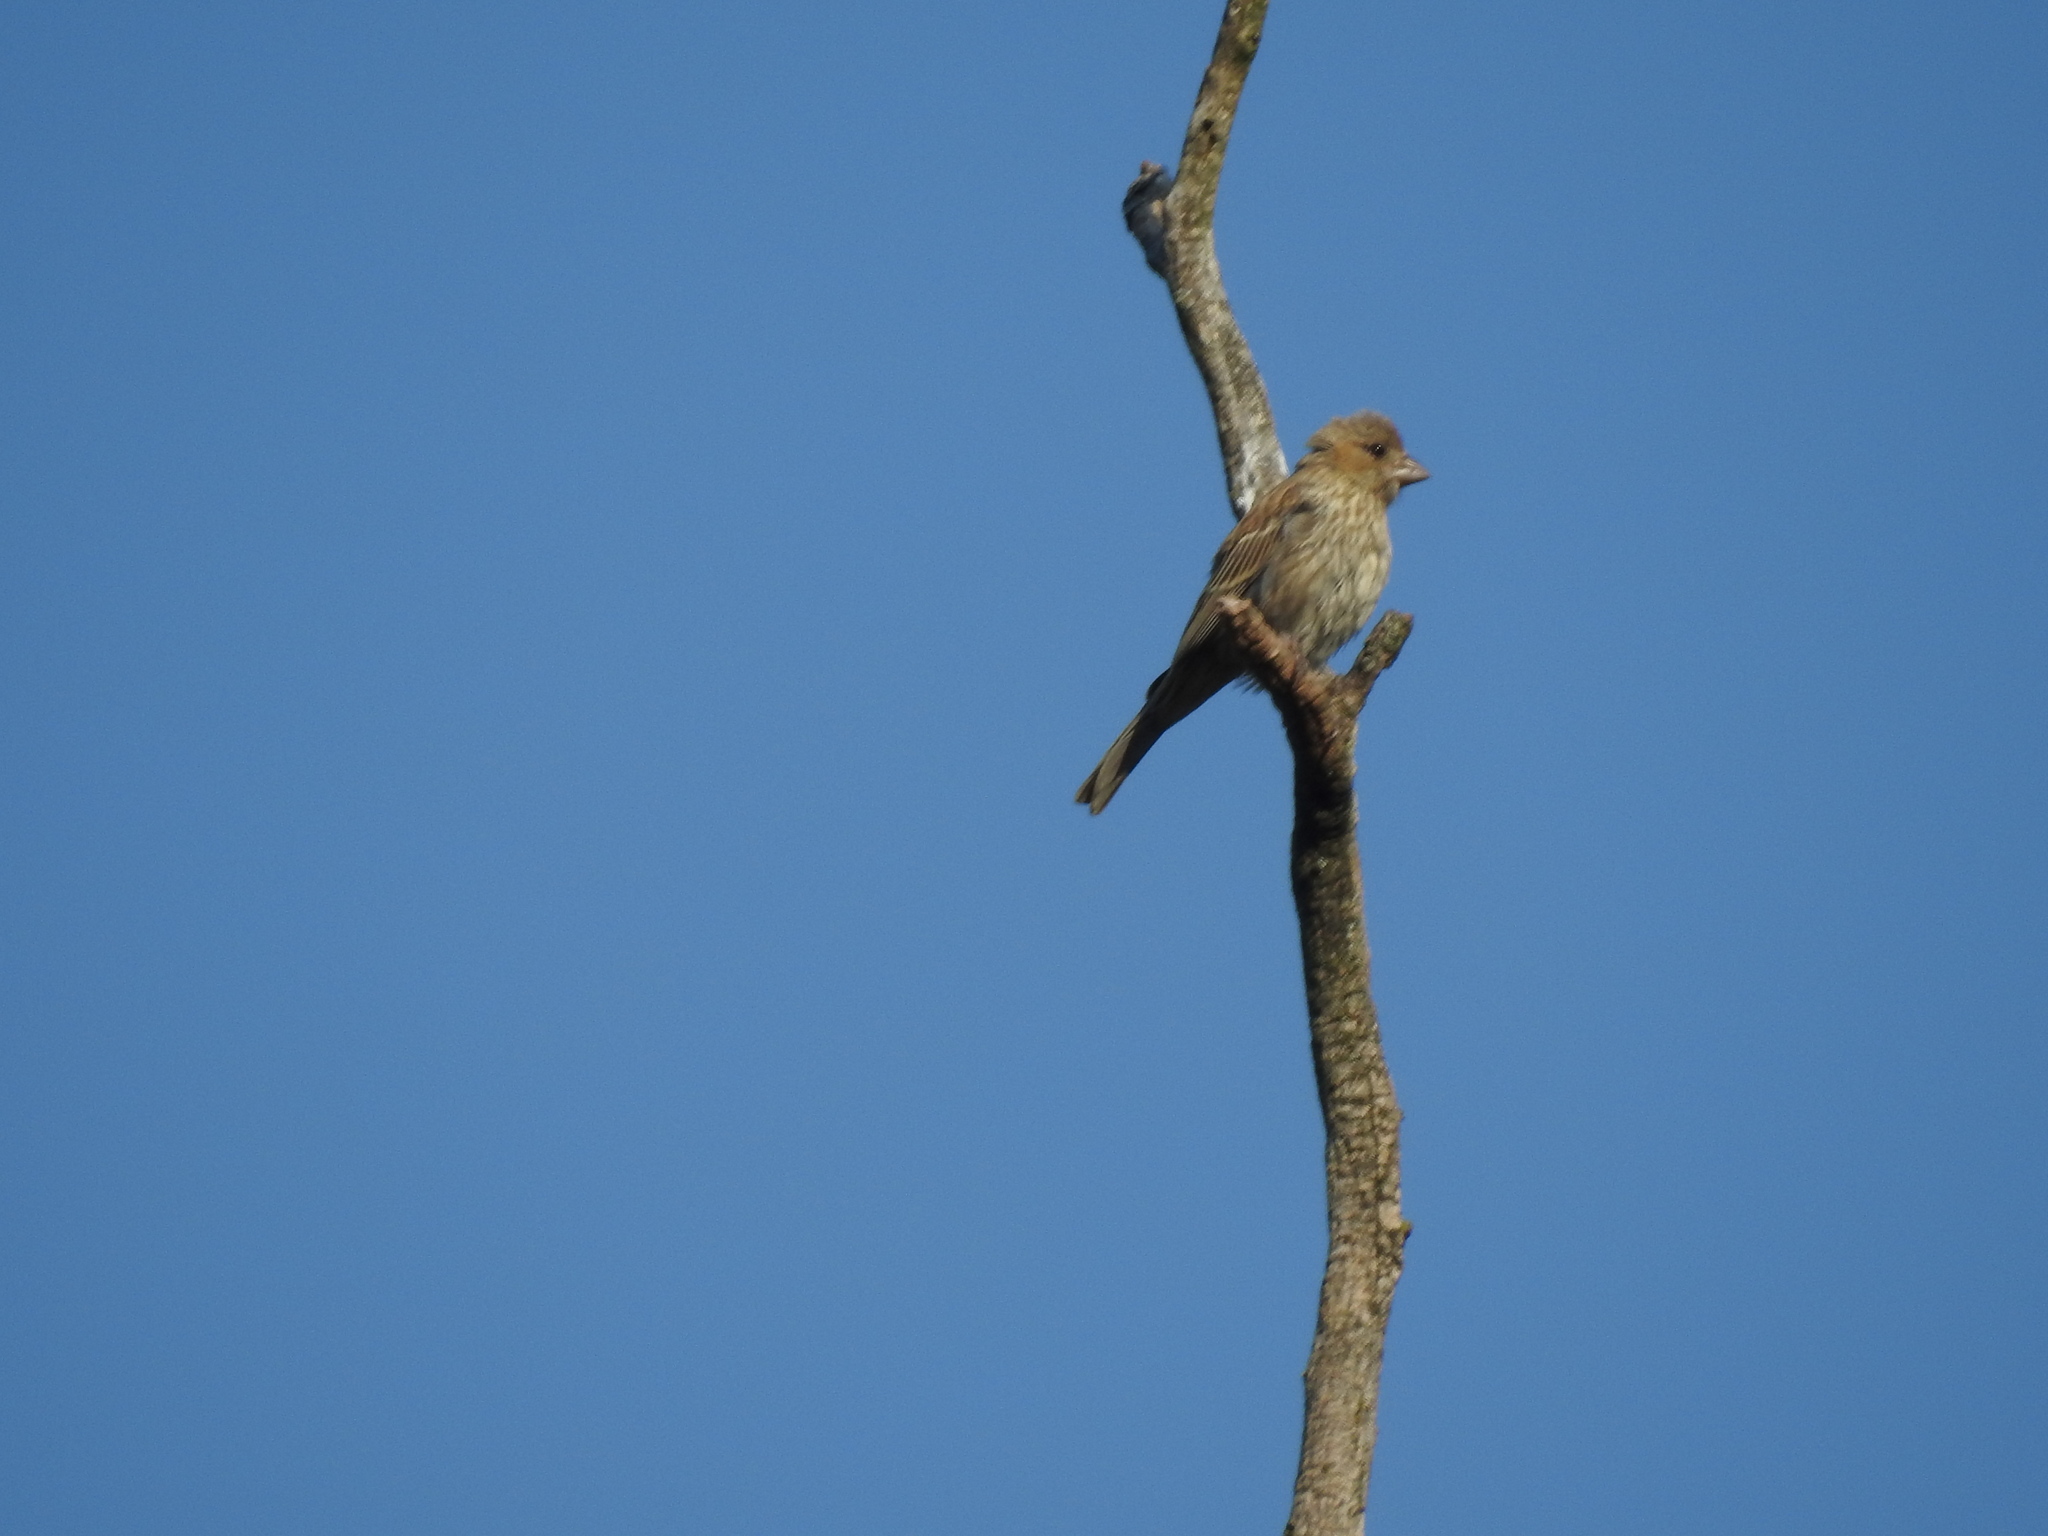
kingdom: Animalia
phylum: Chordata
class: Aves
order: Passeriformes
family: Fringillidae
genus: Haemorhous
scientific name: Haemorhous mexicanus
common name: House finch
